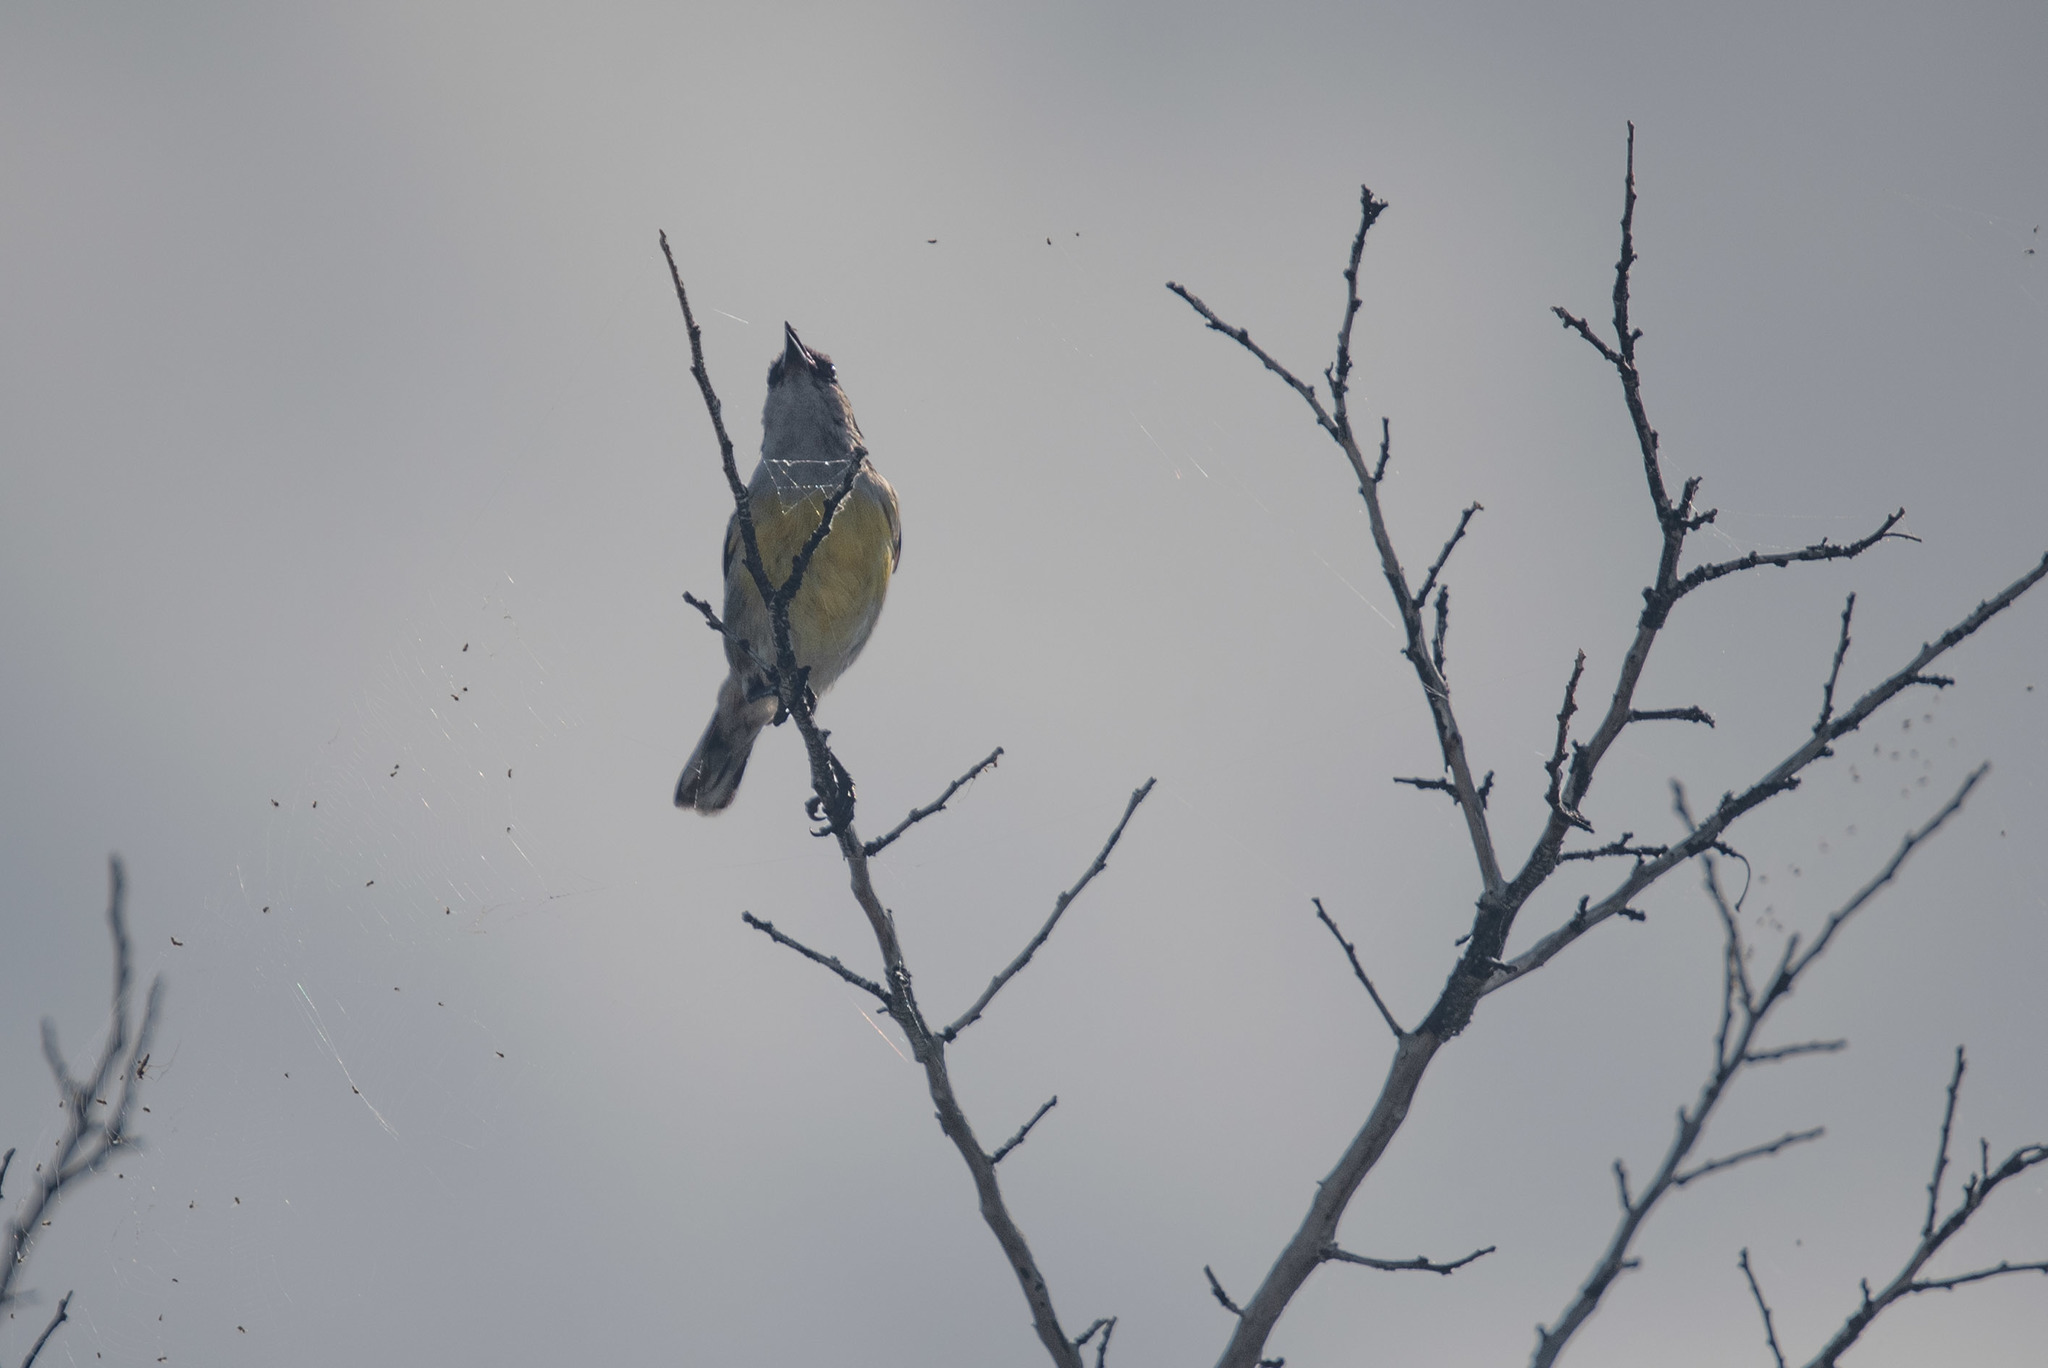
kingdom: Animalia
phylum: Chordata
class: Aves
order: Passeriformes
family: Thraupidae
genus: Coereba
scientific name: Coereba flaveola
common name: Bananaquit
